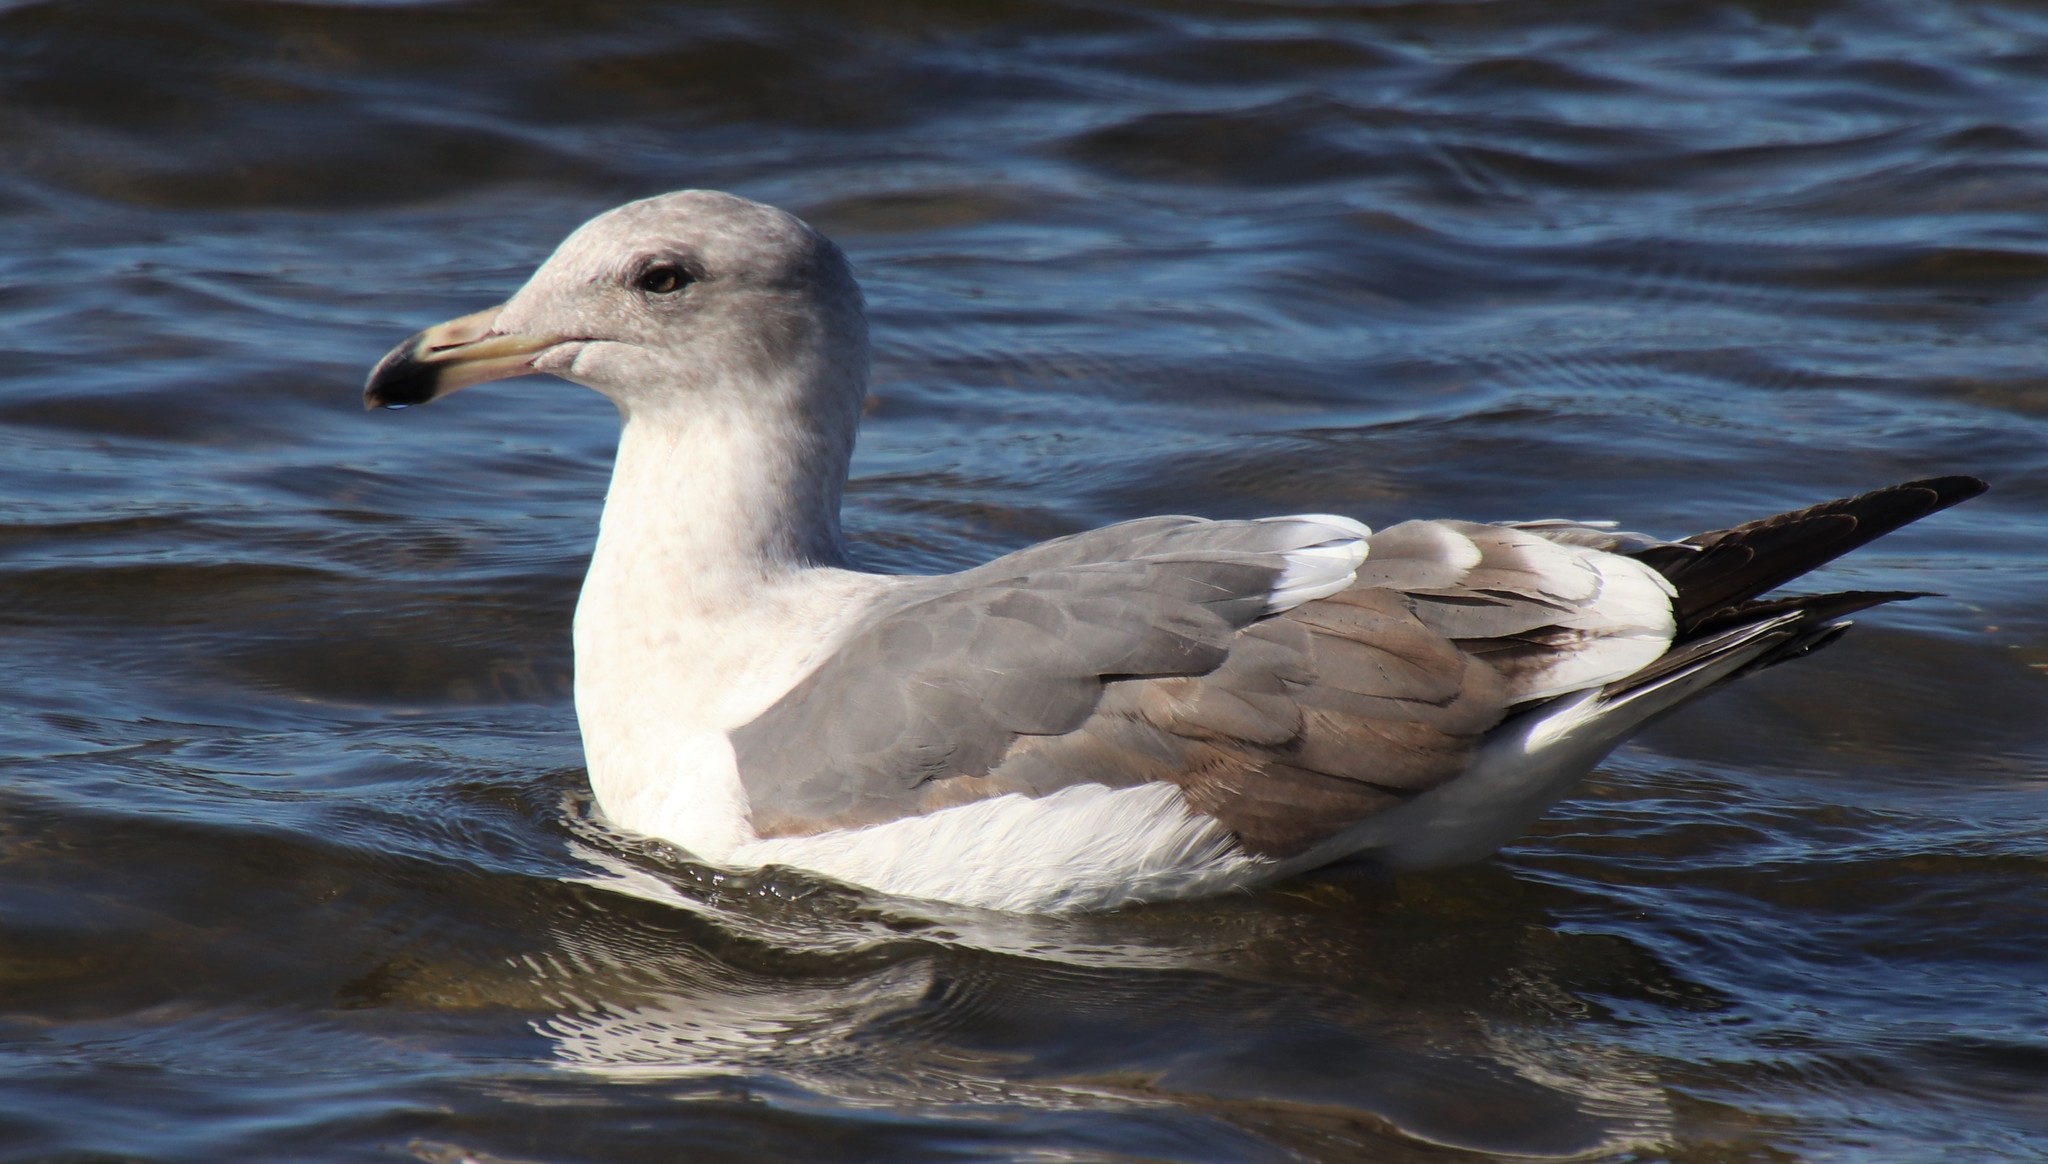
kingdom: Animalia
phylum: Chordata
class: Aves
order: Charadriiformes
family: Laridae
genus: Larus
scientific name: Larus occidentalis
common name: Western gull
